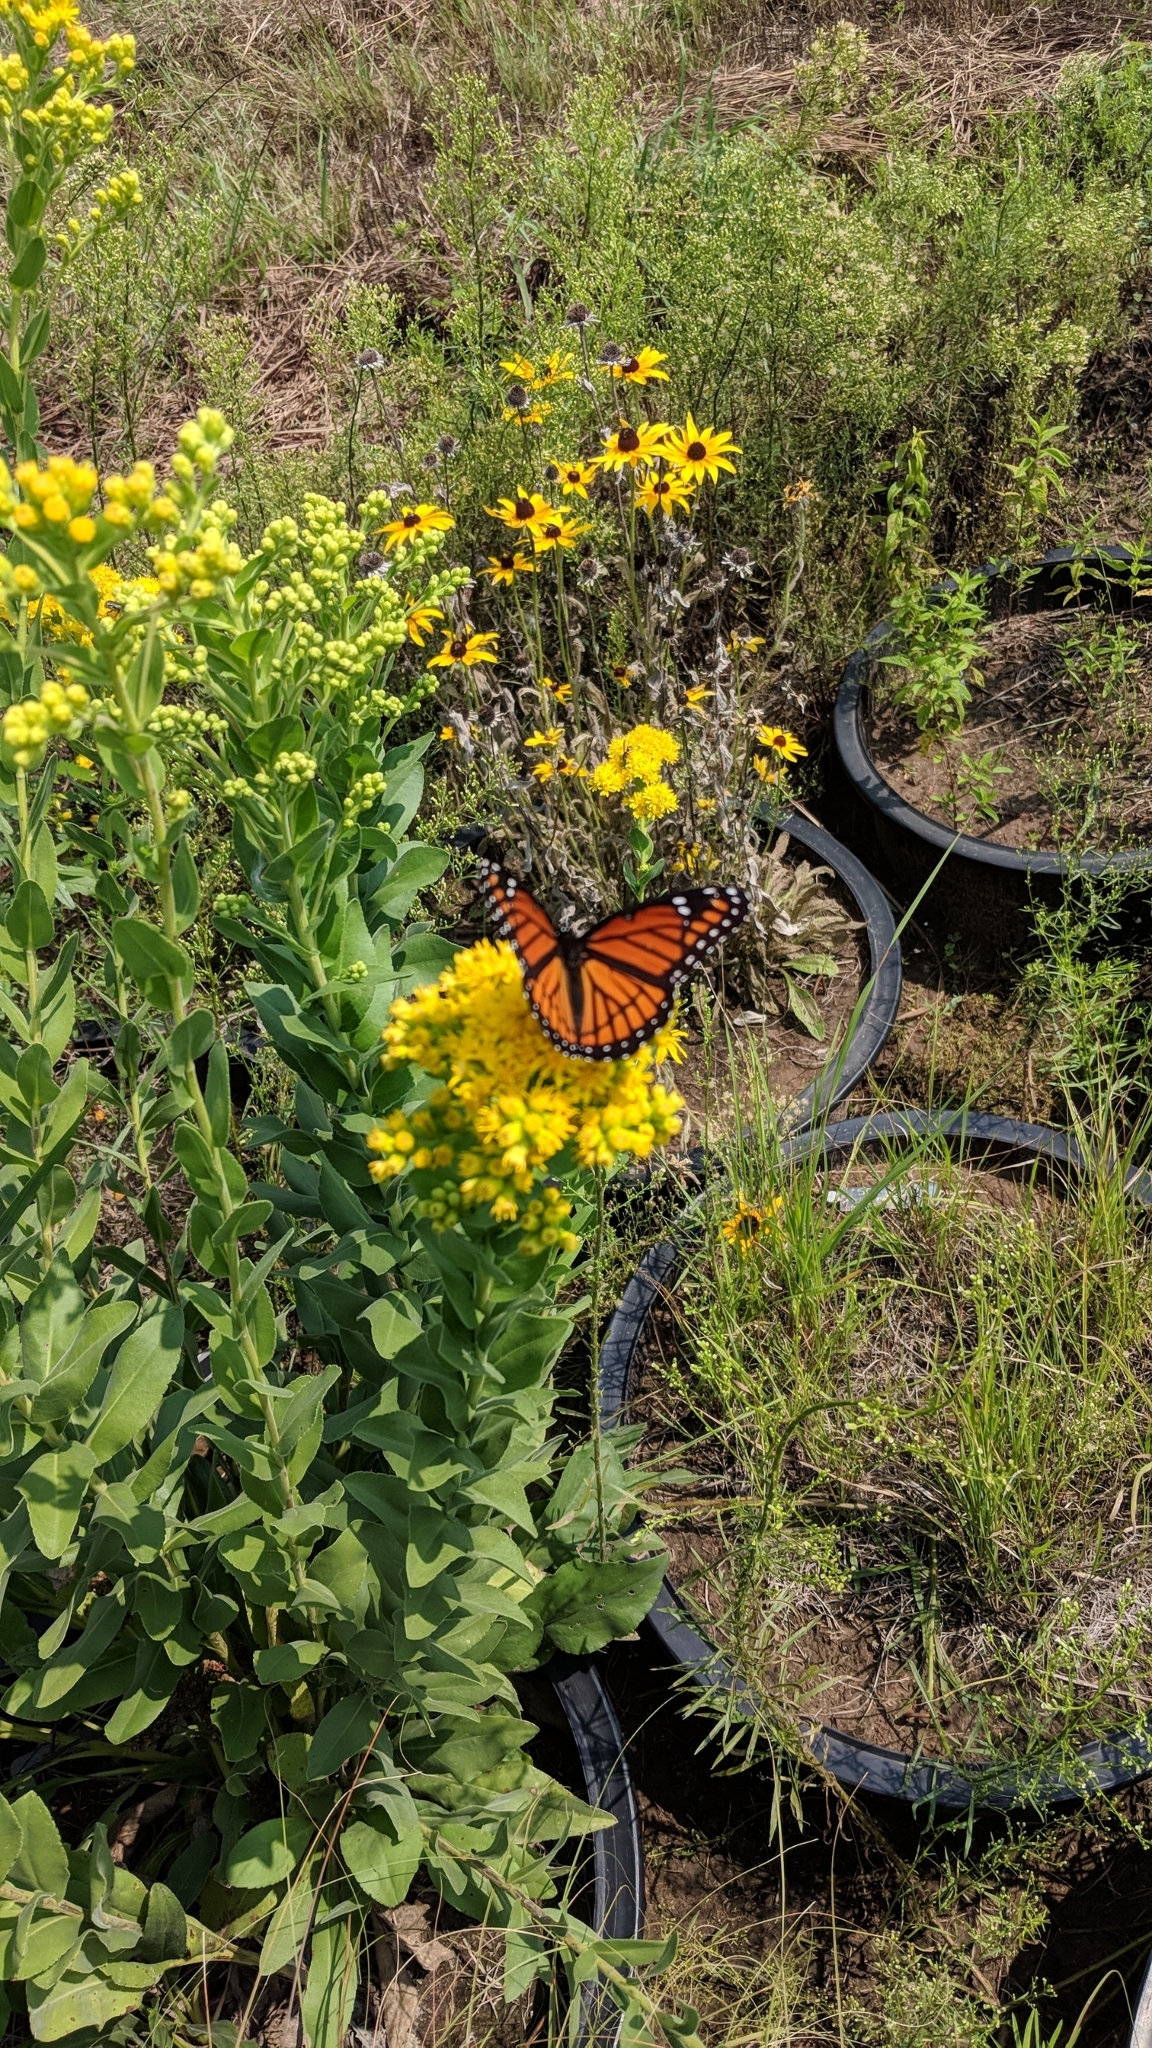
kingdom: Animalia
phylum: Arthropoda
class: Insecta
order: Lepidoptera
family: Nymphalidae
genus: Limenitis
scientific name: Limenitis archippus
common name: Viceroy
